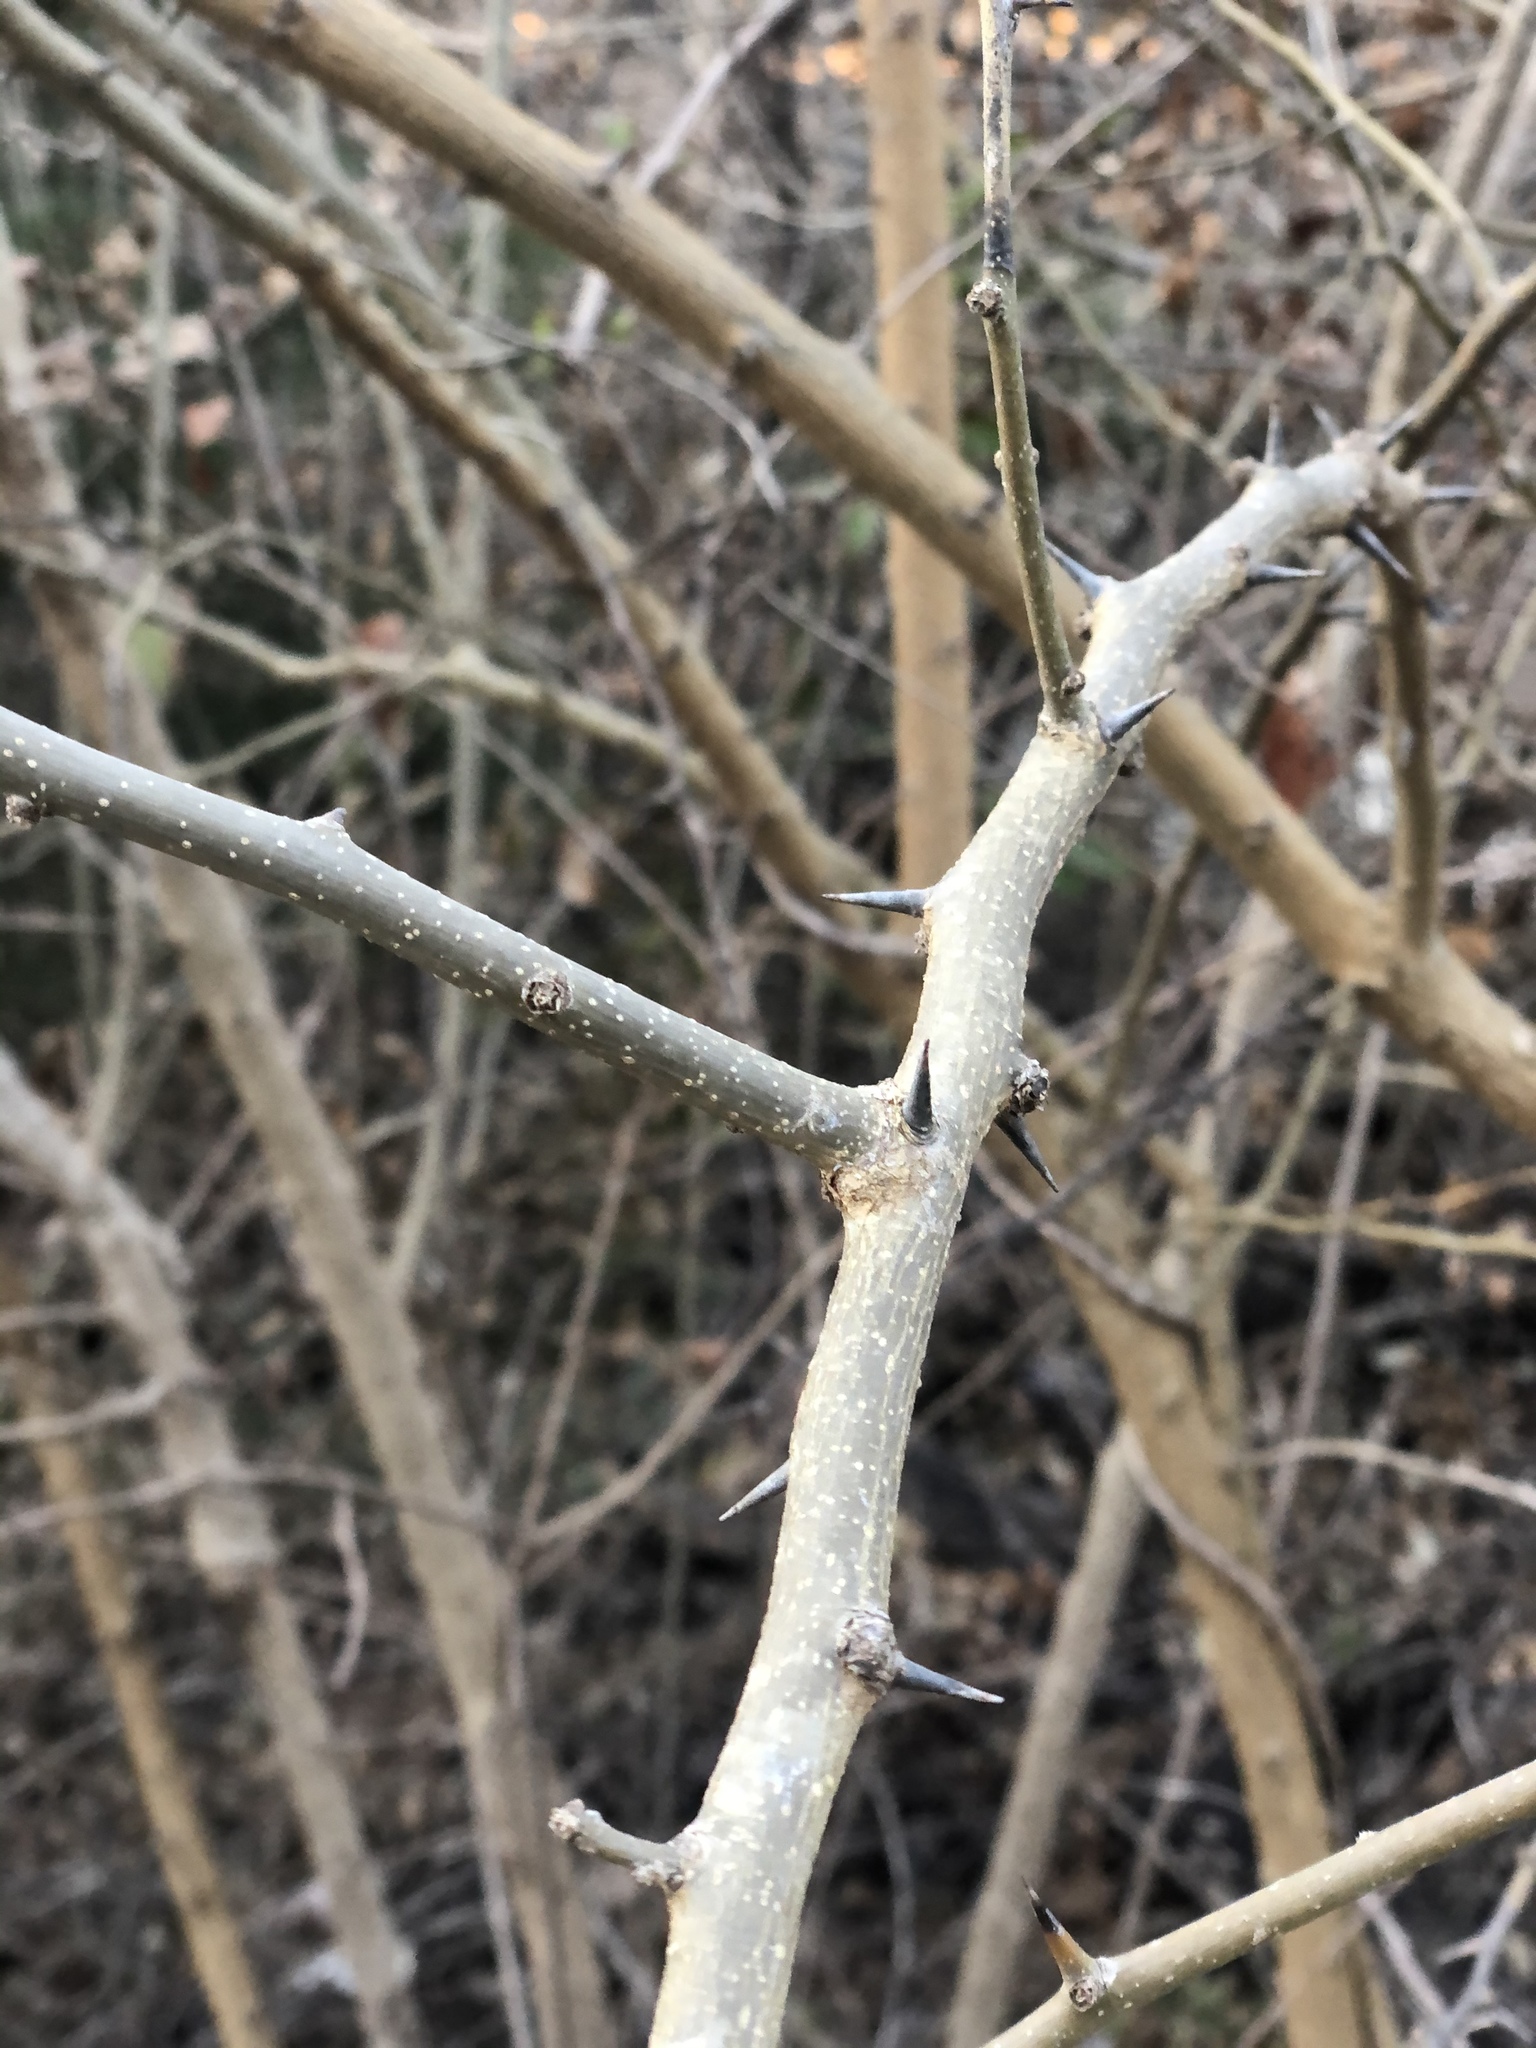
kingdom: Plantae
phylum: Tracheophyta
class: Magnoliopsida
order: Rosales
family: Moraceae
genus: Maclura
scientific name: Maclura pomifera
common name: Osage-orange
